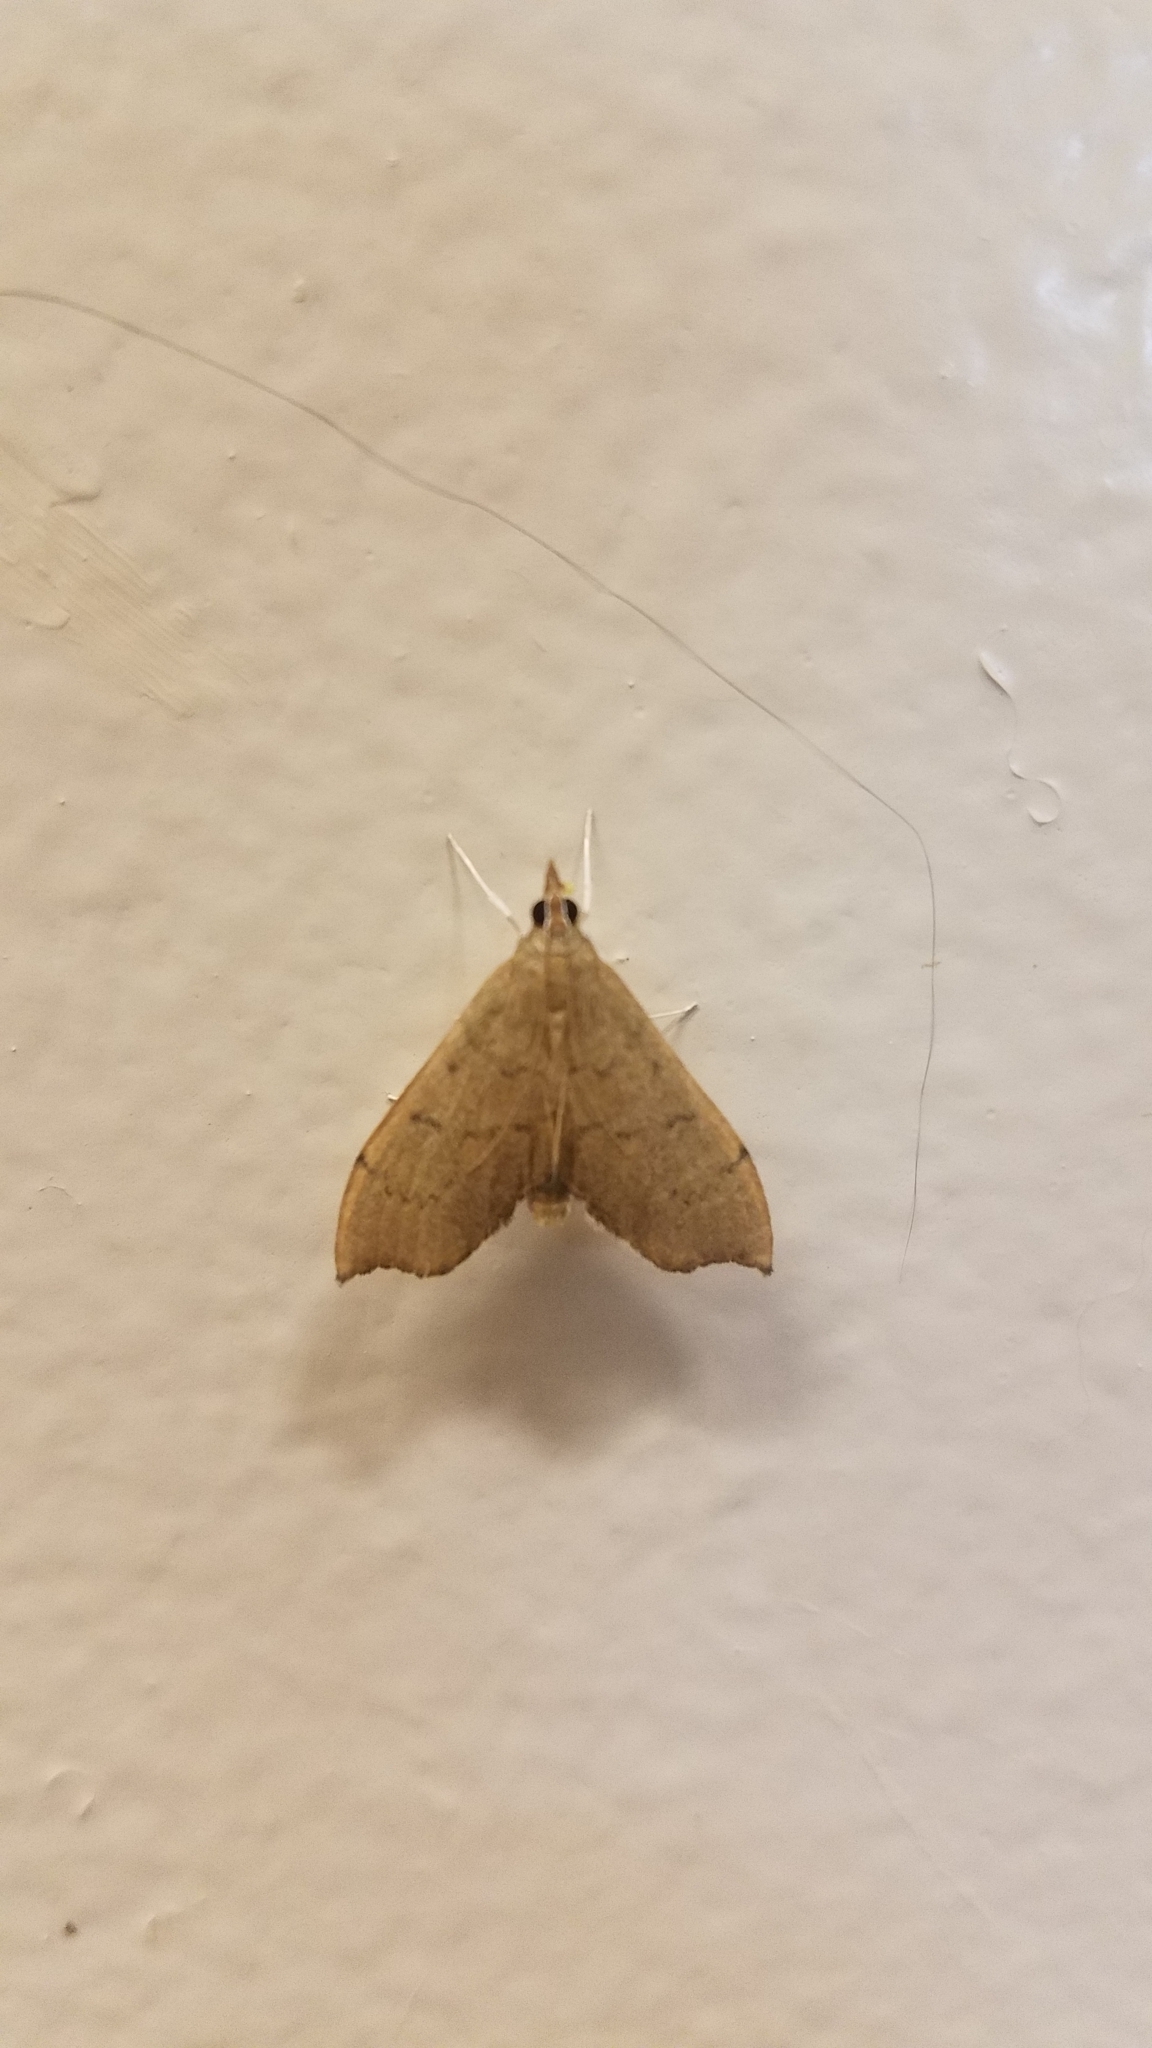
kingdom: Animalia
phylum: Arthropoda
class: Insecta
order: Lepidoptera
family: Crambidae
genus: Sericoplaga
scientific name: Sericoplaga externalis
